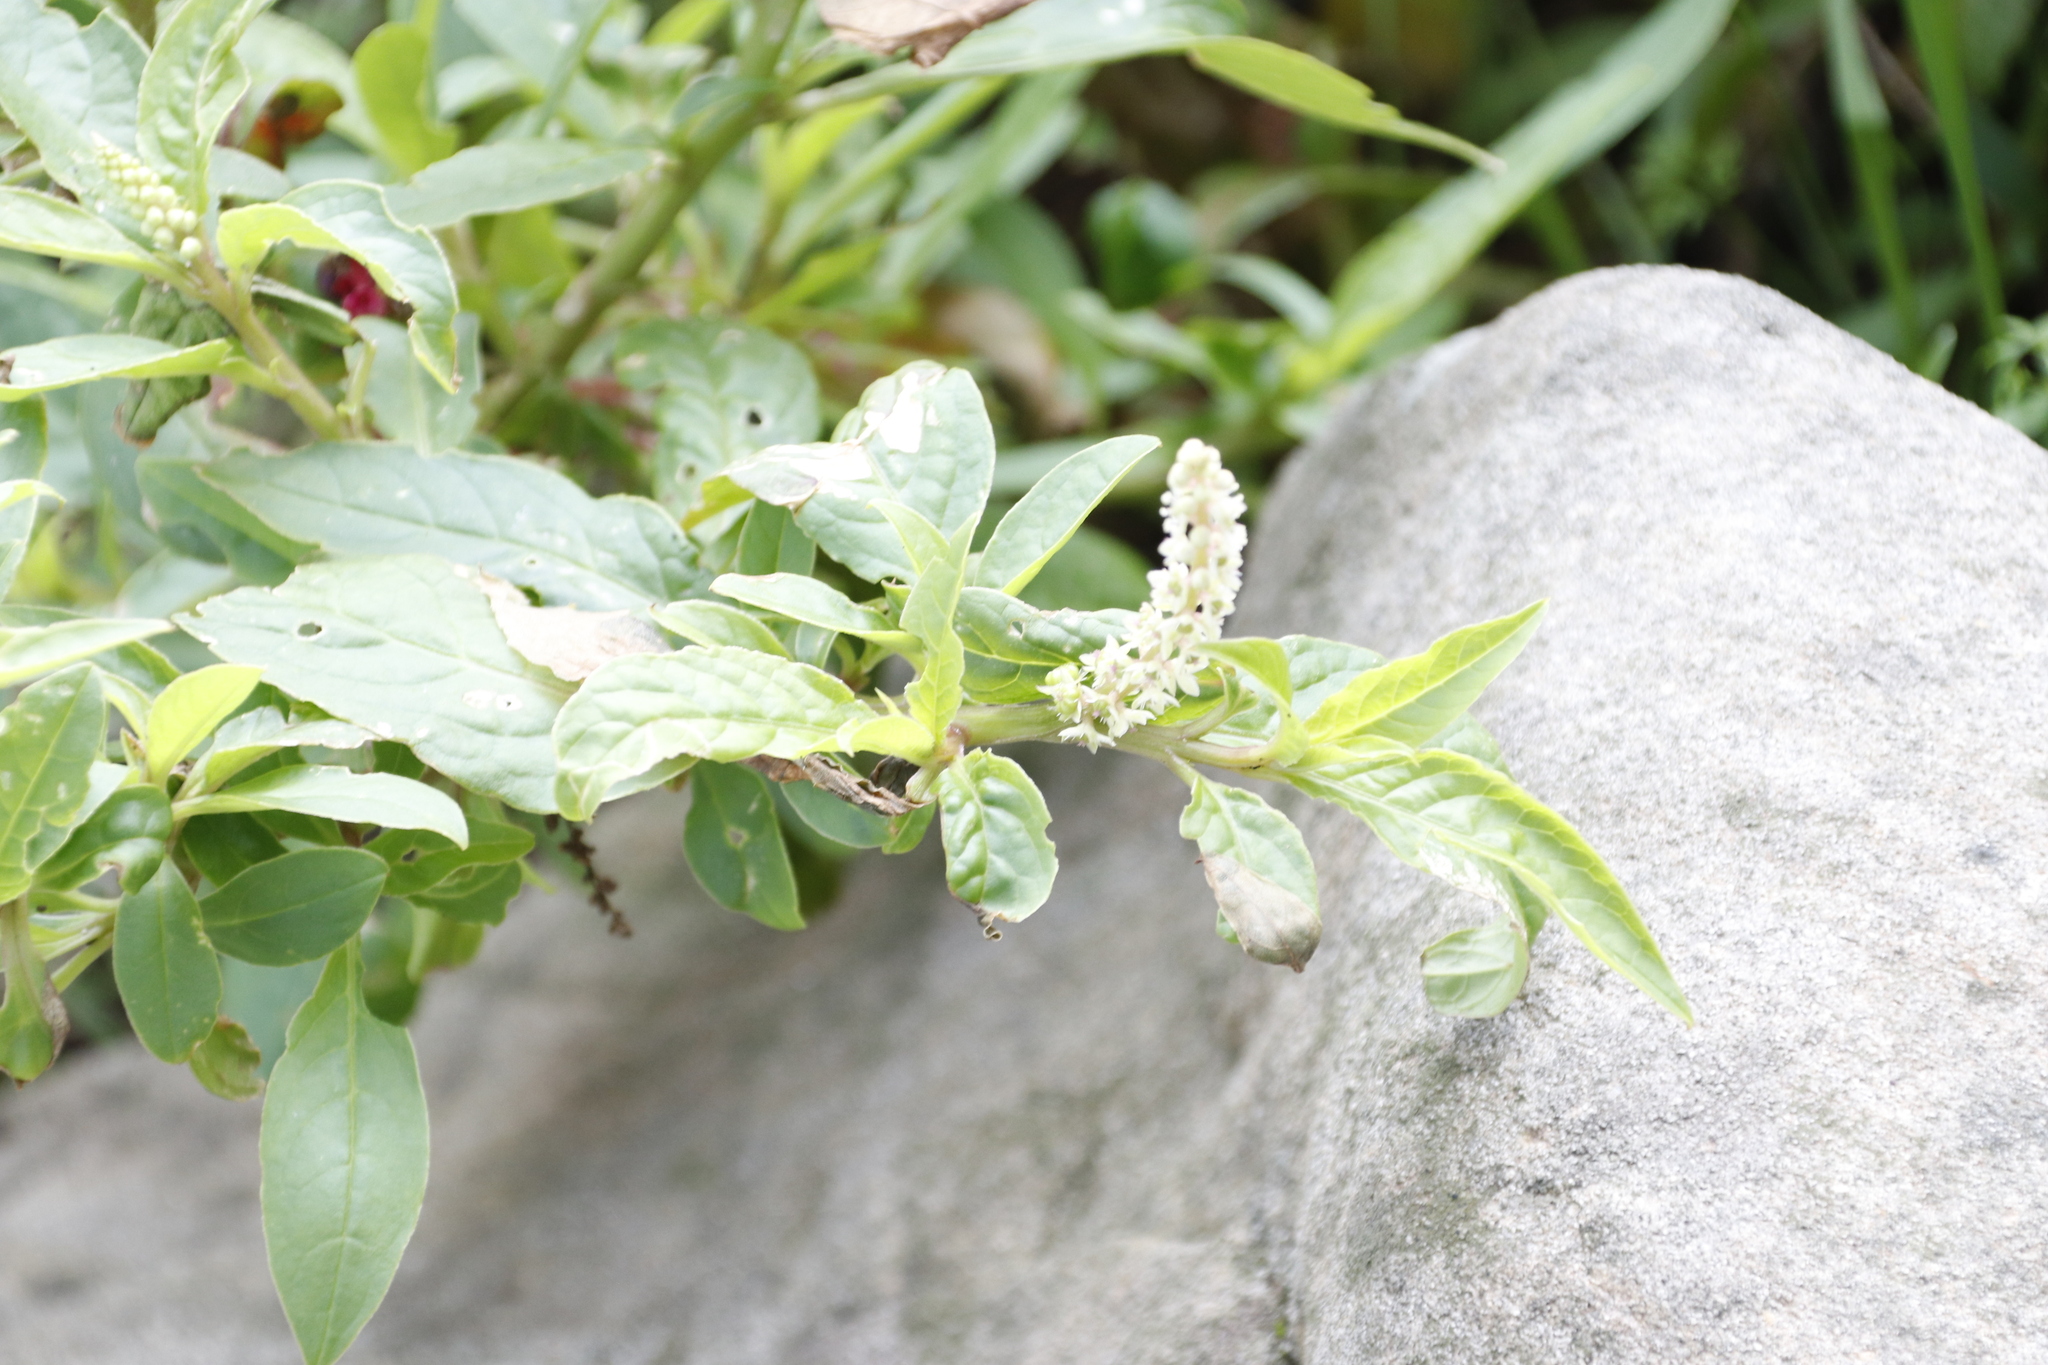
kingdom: Plantae
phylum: Tracheophyta
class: Magnoliopsida
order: Caryophyllales
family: Phytolaccaceae
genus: Phytolacca
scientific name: Phytolacca icosandra
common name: Button pokeweed
